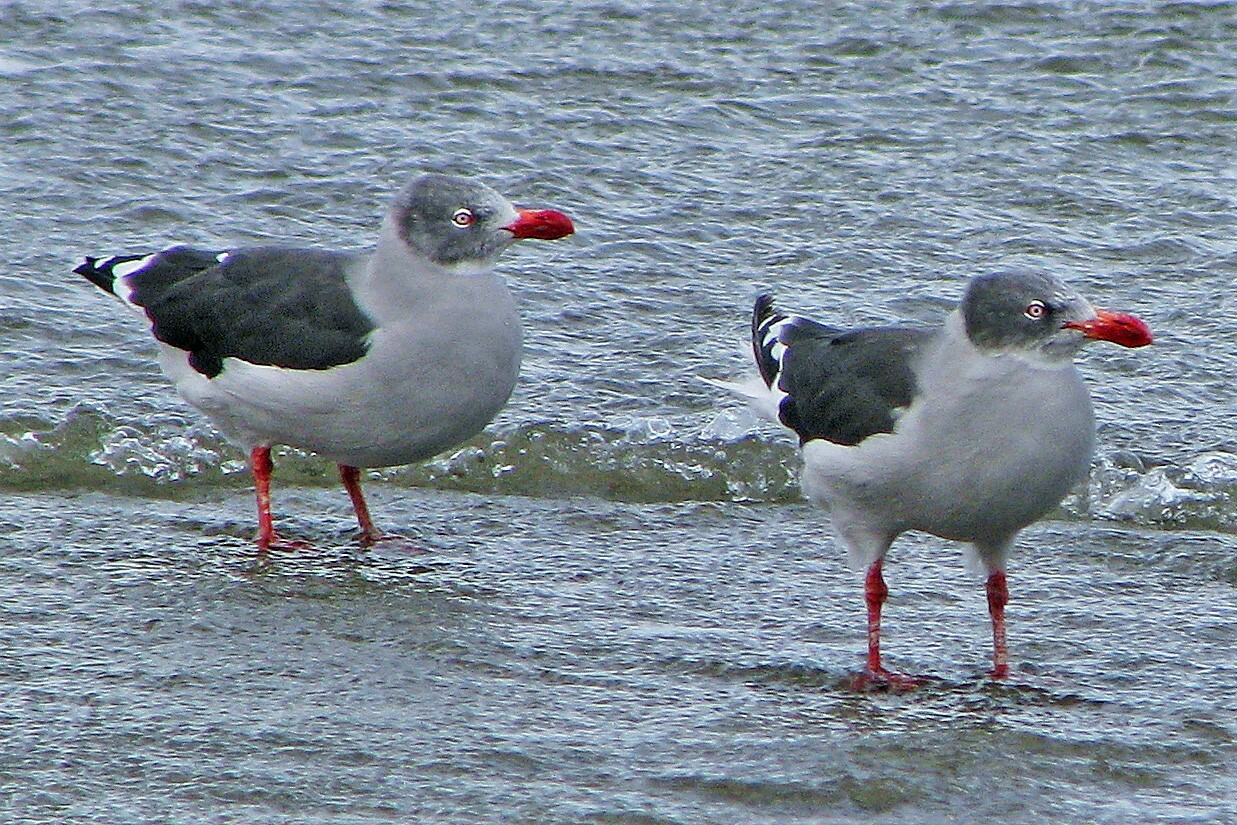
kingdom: Animalia
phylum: Chordata
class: Aves
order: Charadriiformes
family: Laridae
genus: Leucophaeus
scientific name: Leucophaeus scoresbii
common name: Dolphin gull
